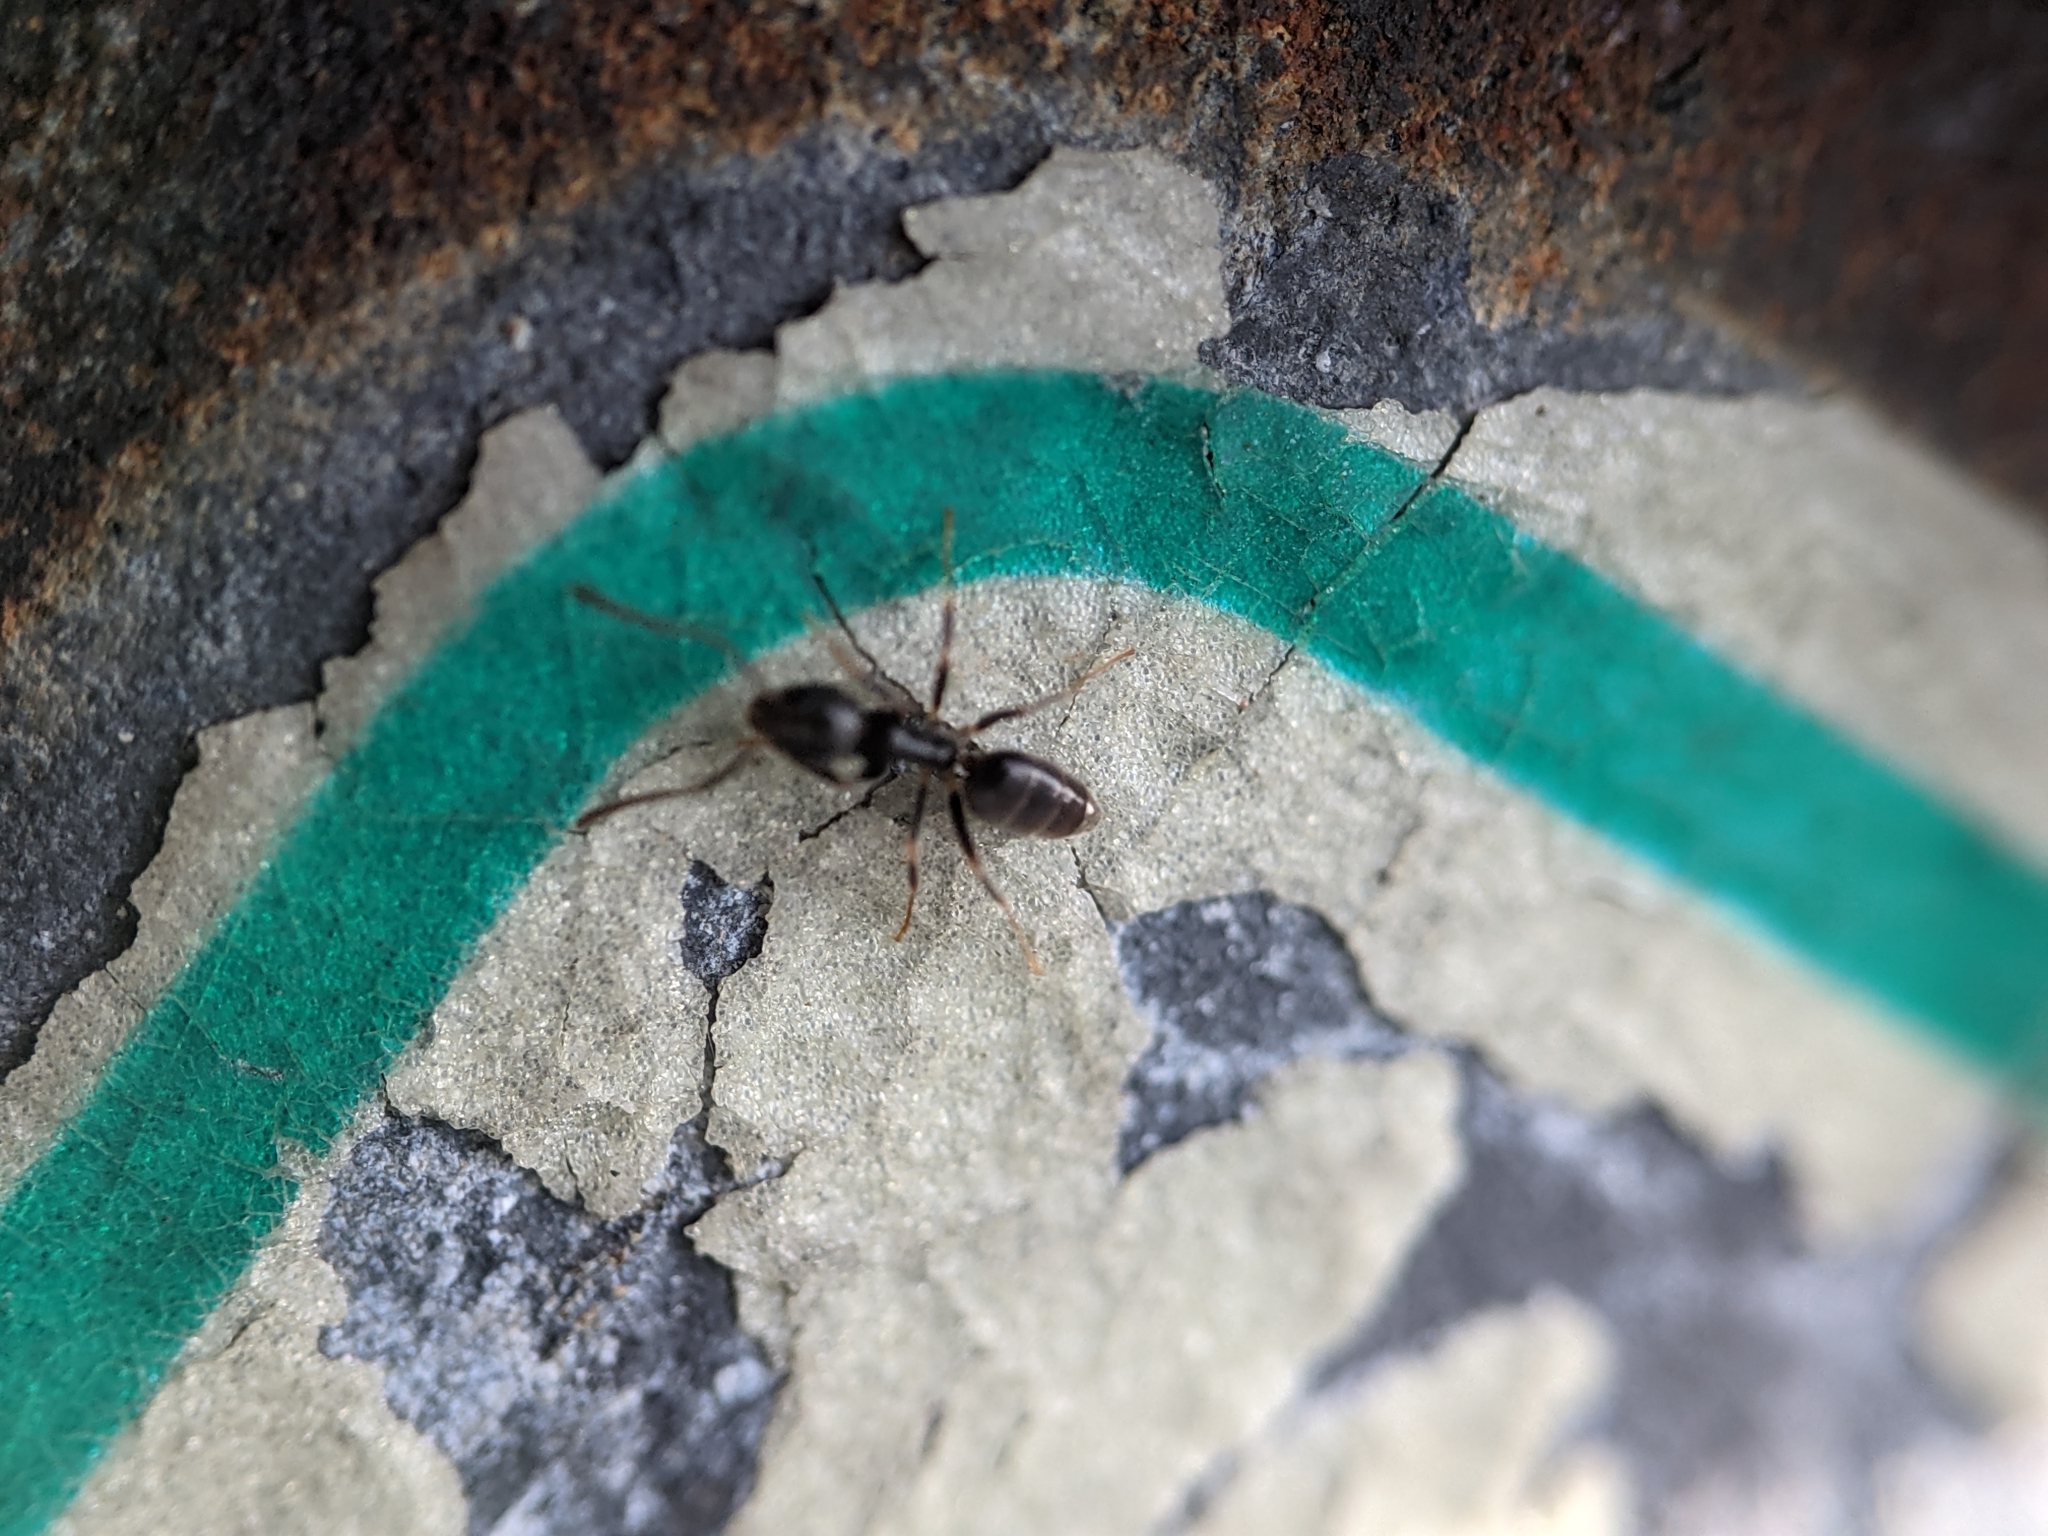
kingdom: Animalia
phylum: Arthropoda
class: Insecta
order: Hymenoptera
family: Formicidae
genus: Tapinoma
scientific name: Tapinoma sessile
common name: Odorous house ant
